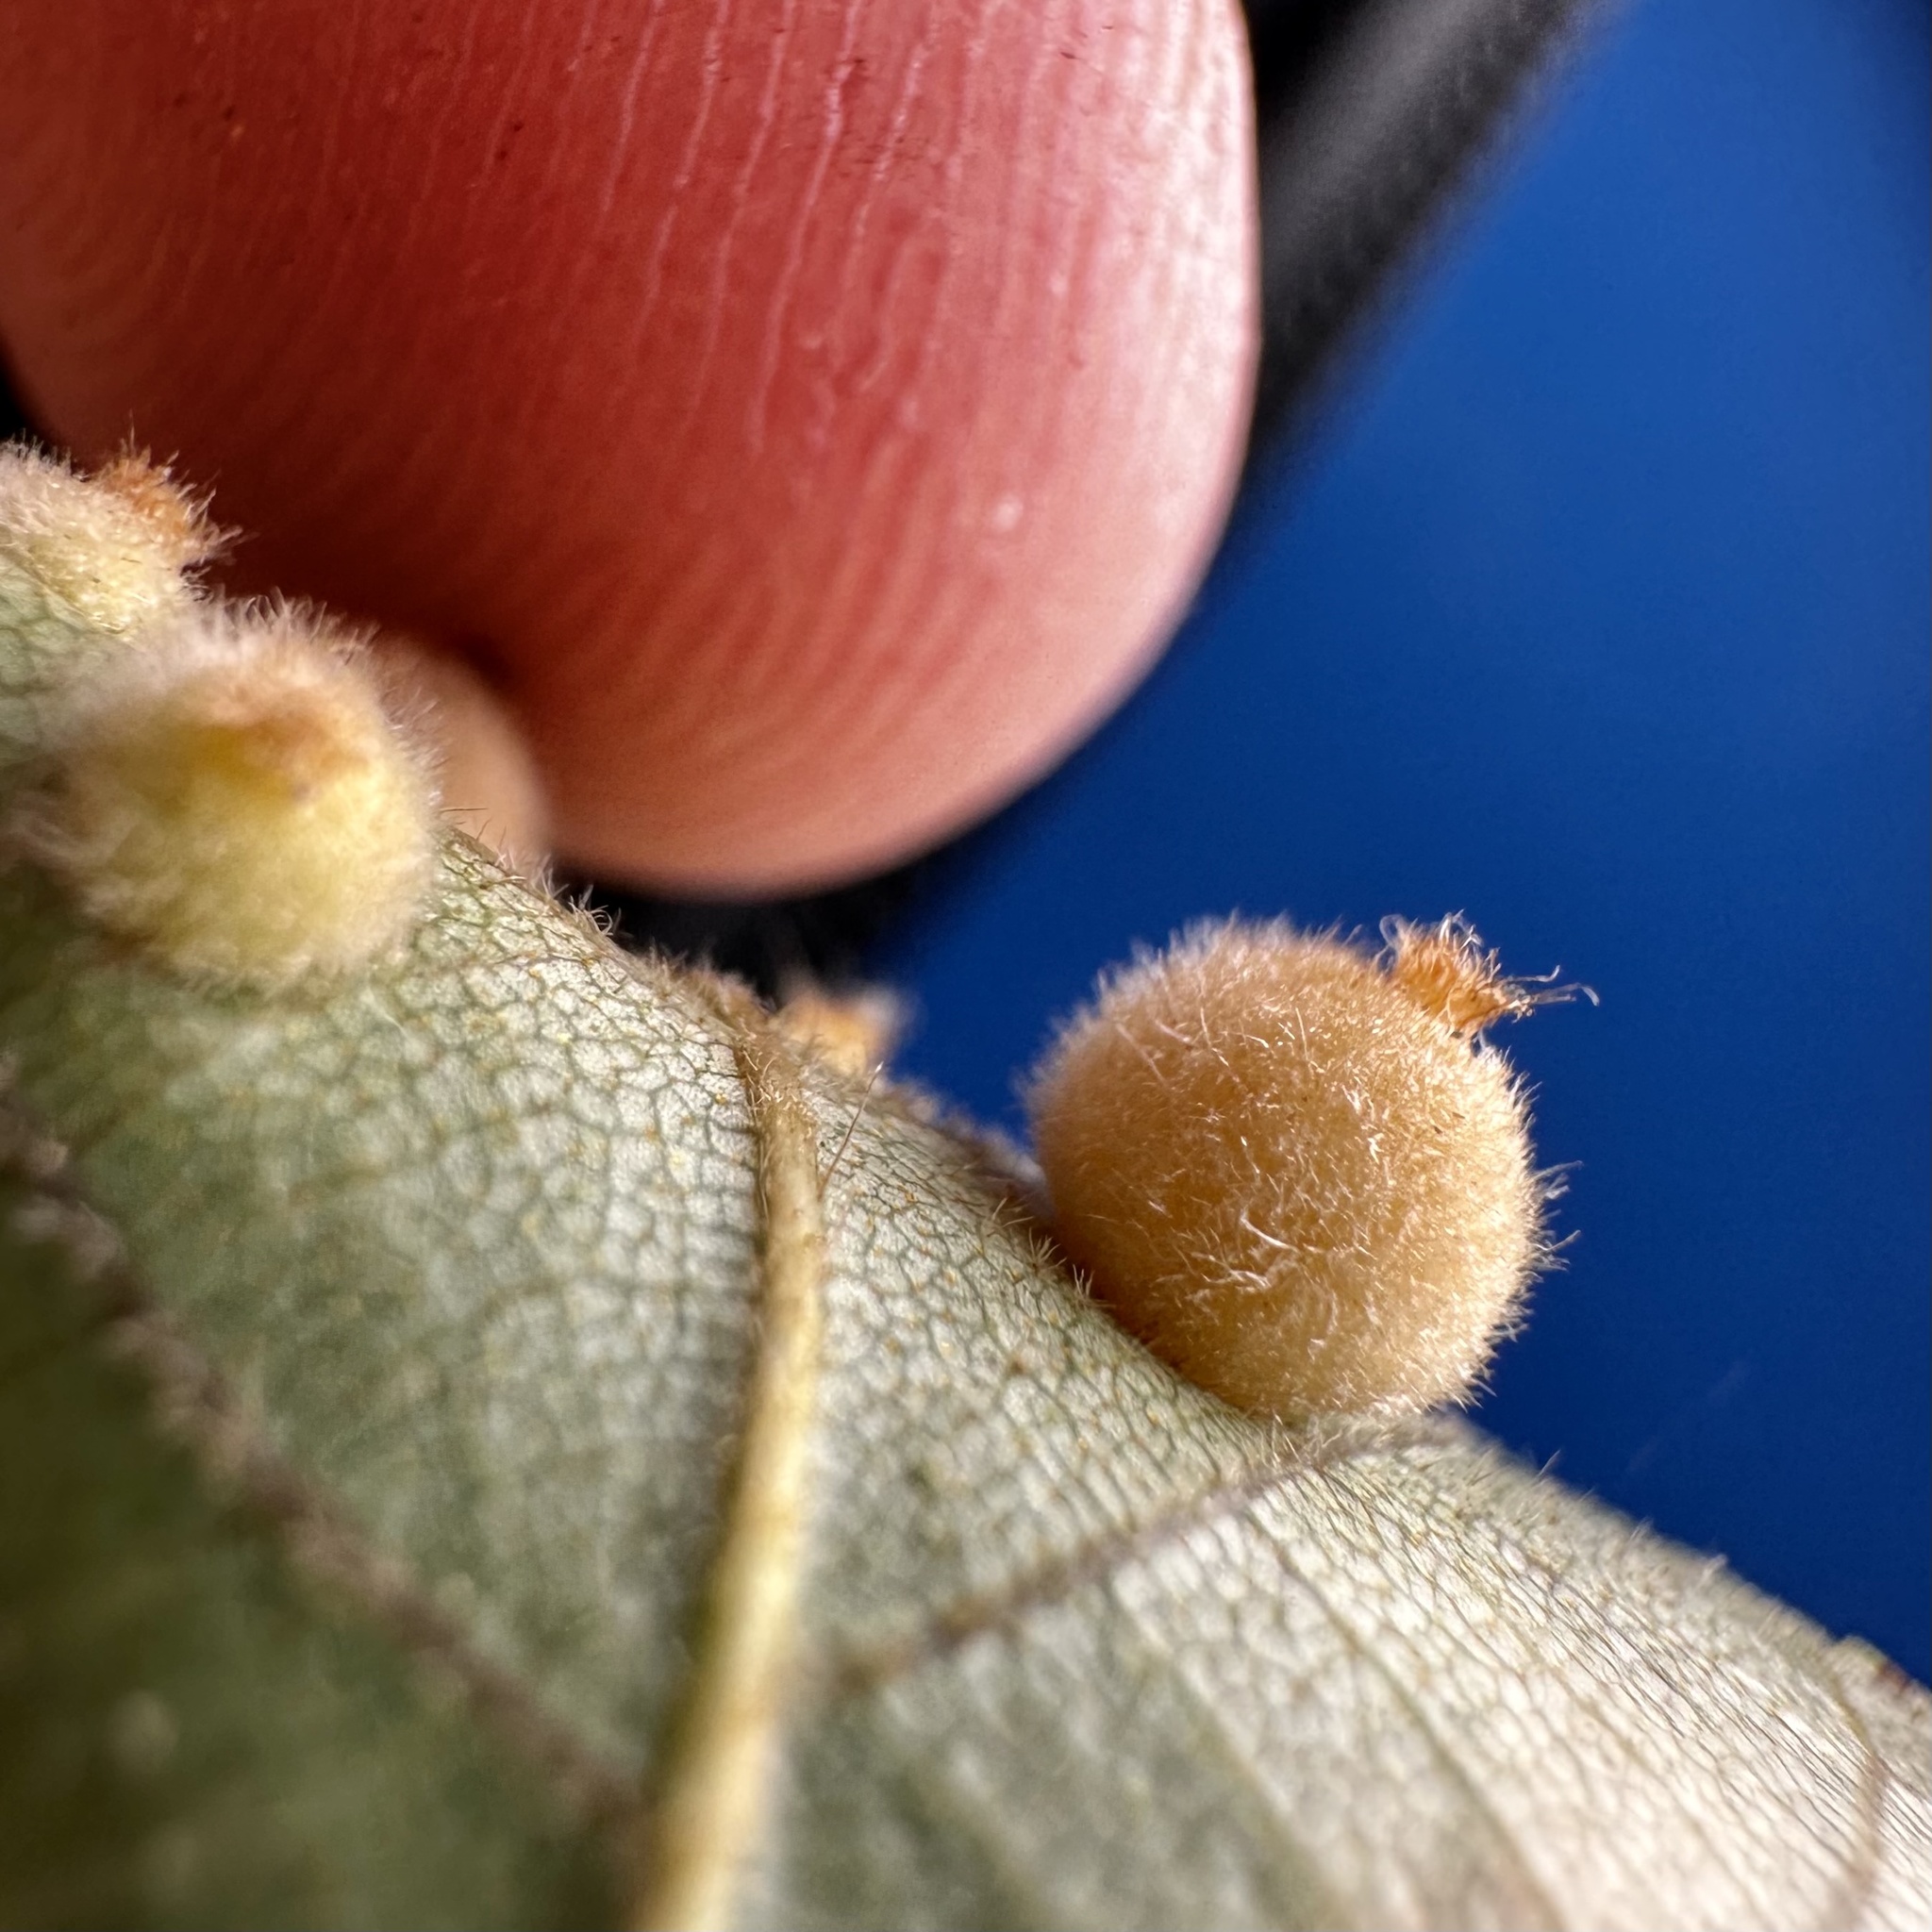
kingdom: Animalia
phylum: Arthropoda
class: Insecta
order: Diptera
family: Cecidomyiidae
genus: Caryomyia
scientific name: Caryomyia hirtidolium
